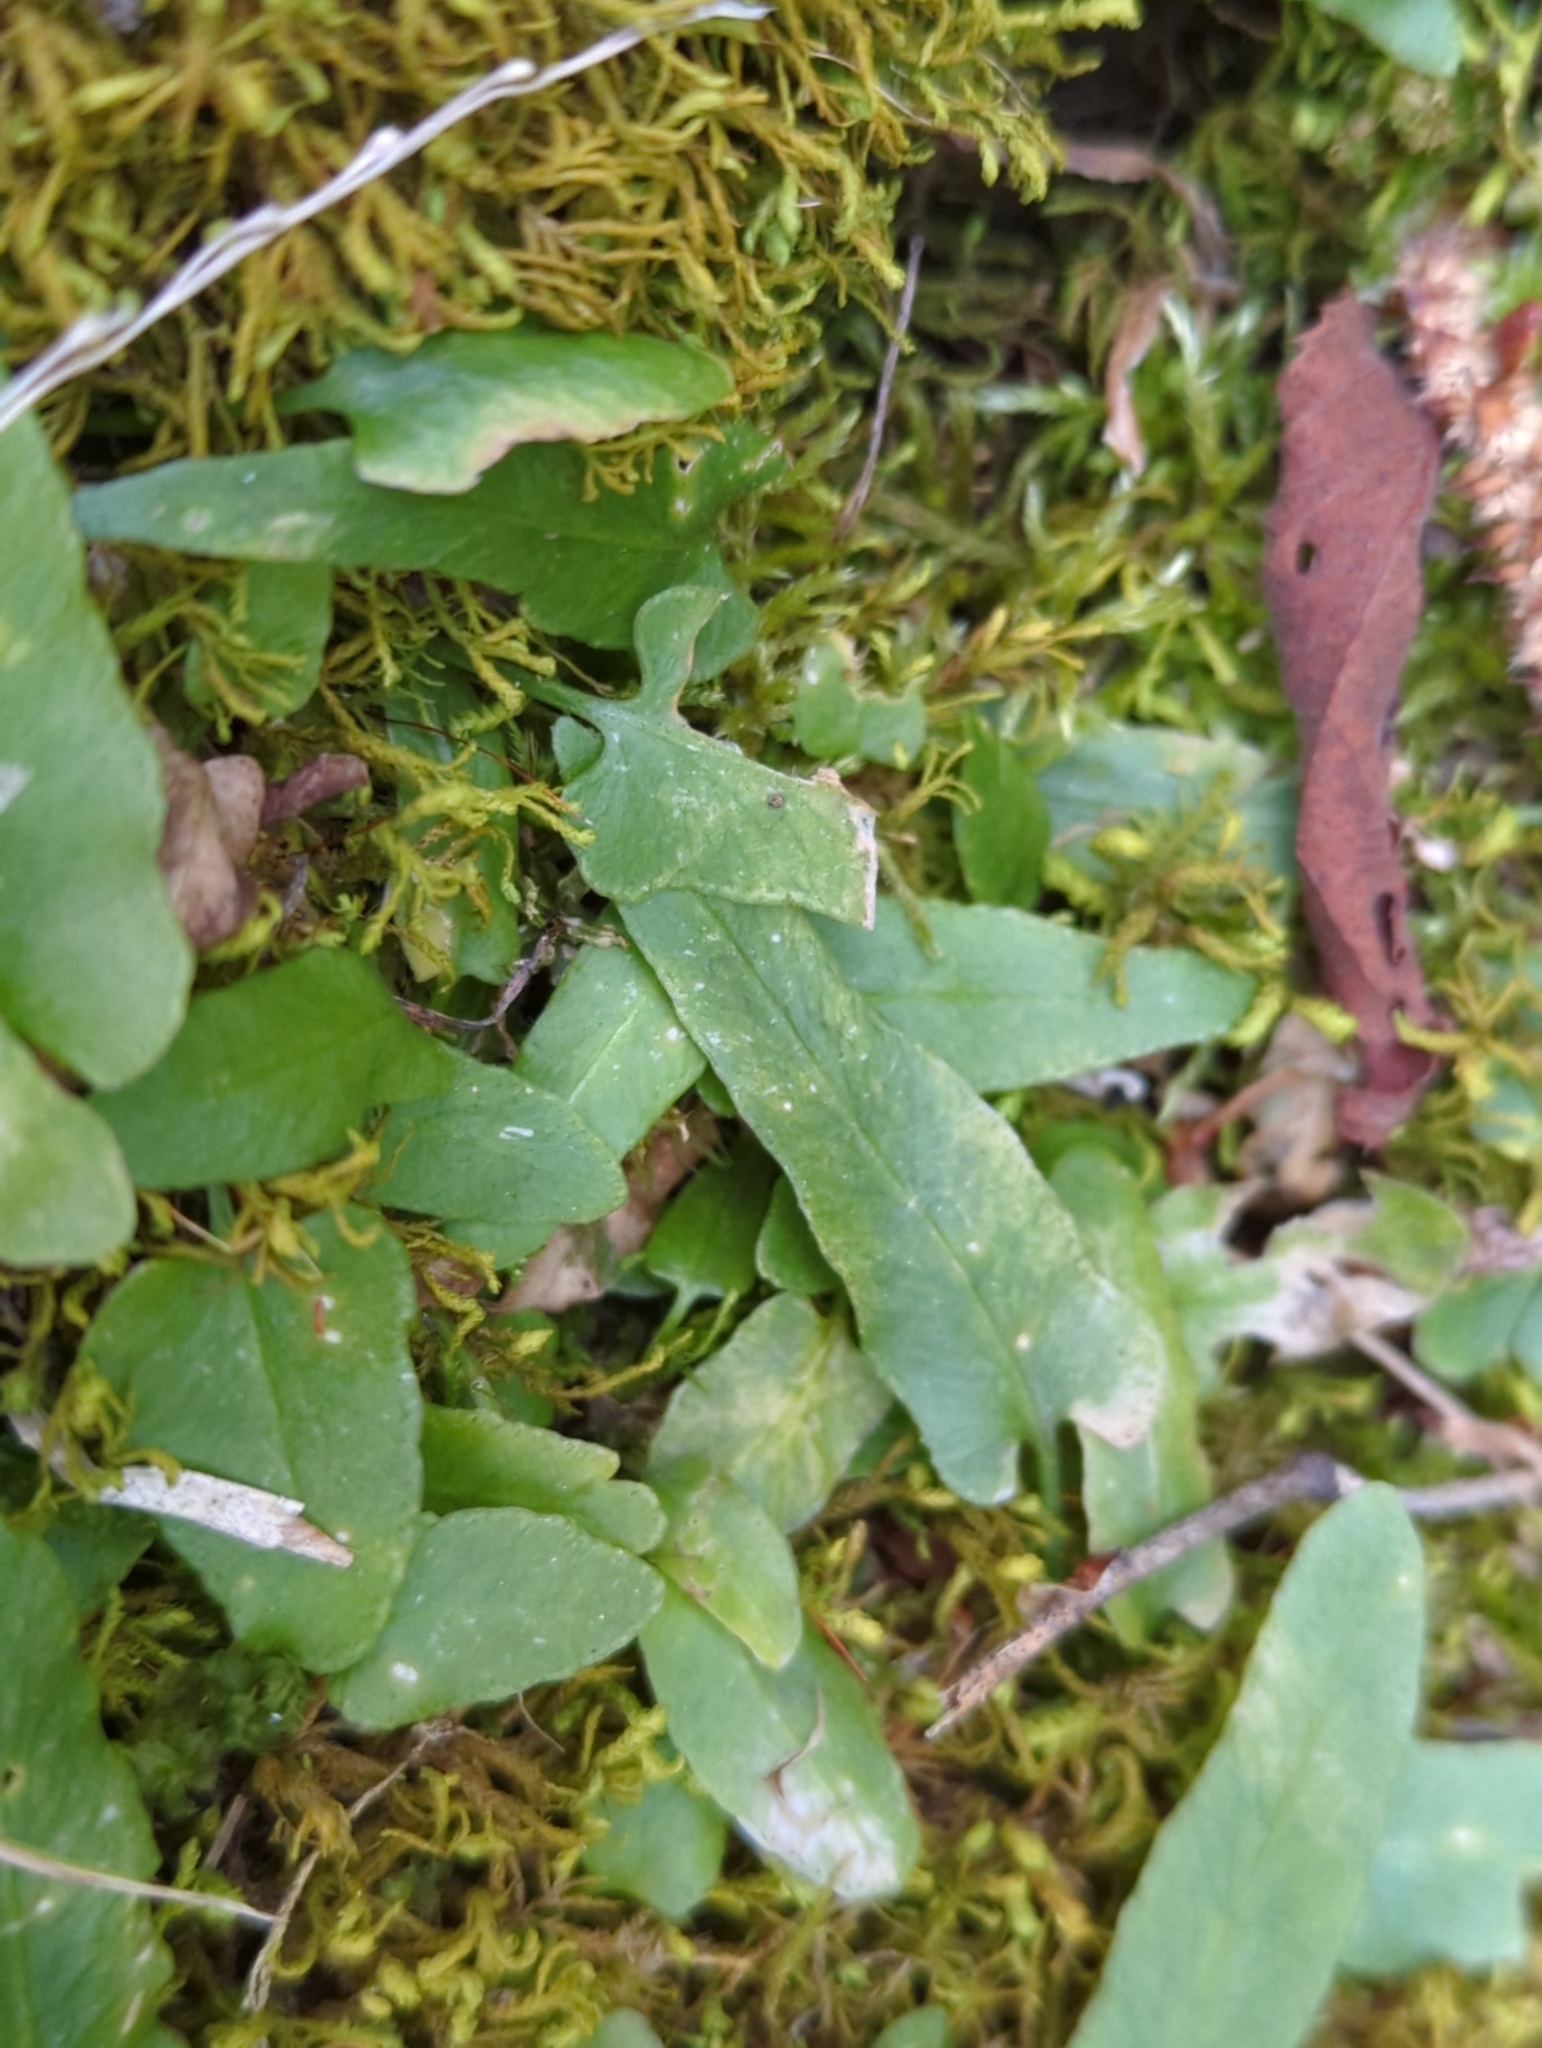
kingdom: Plantae
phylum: Tracheophyta
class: Polypodiopsida
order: Polypodiales
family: Aspleniaceae
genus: Asplenium
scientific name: Asplenium rhizophyllum
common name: Walking fern
